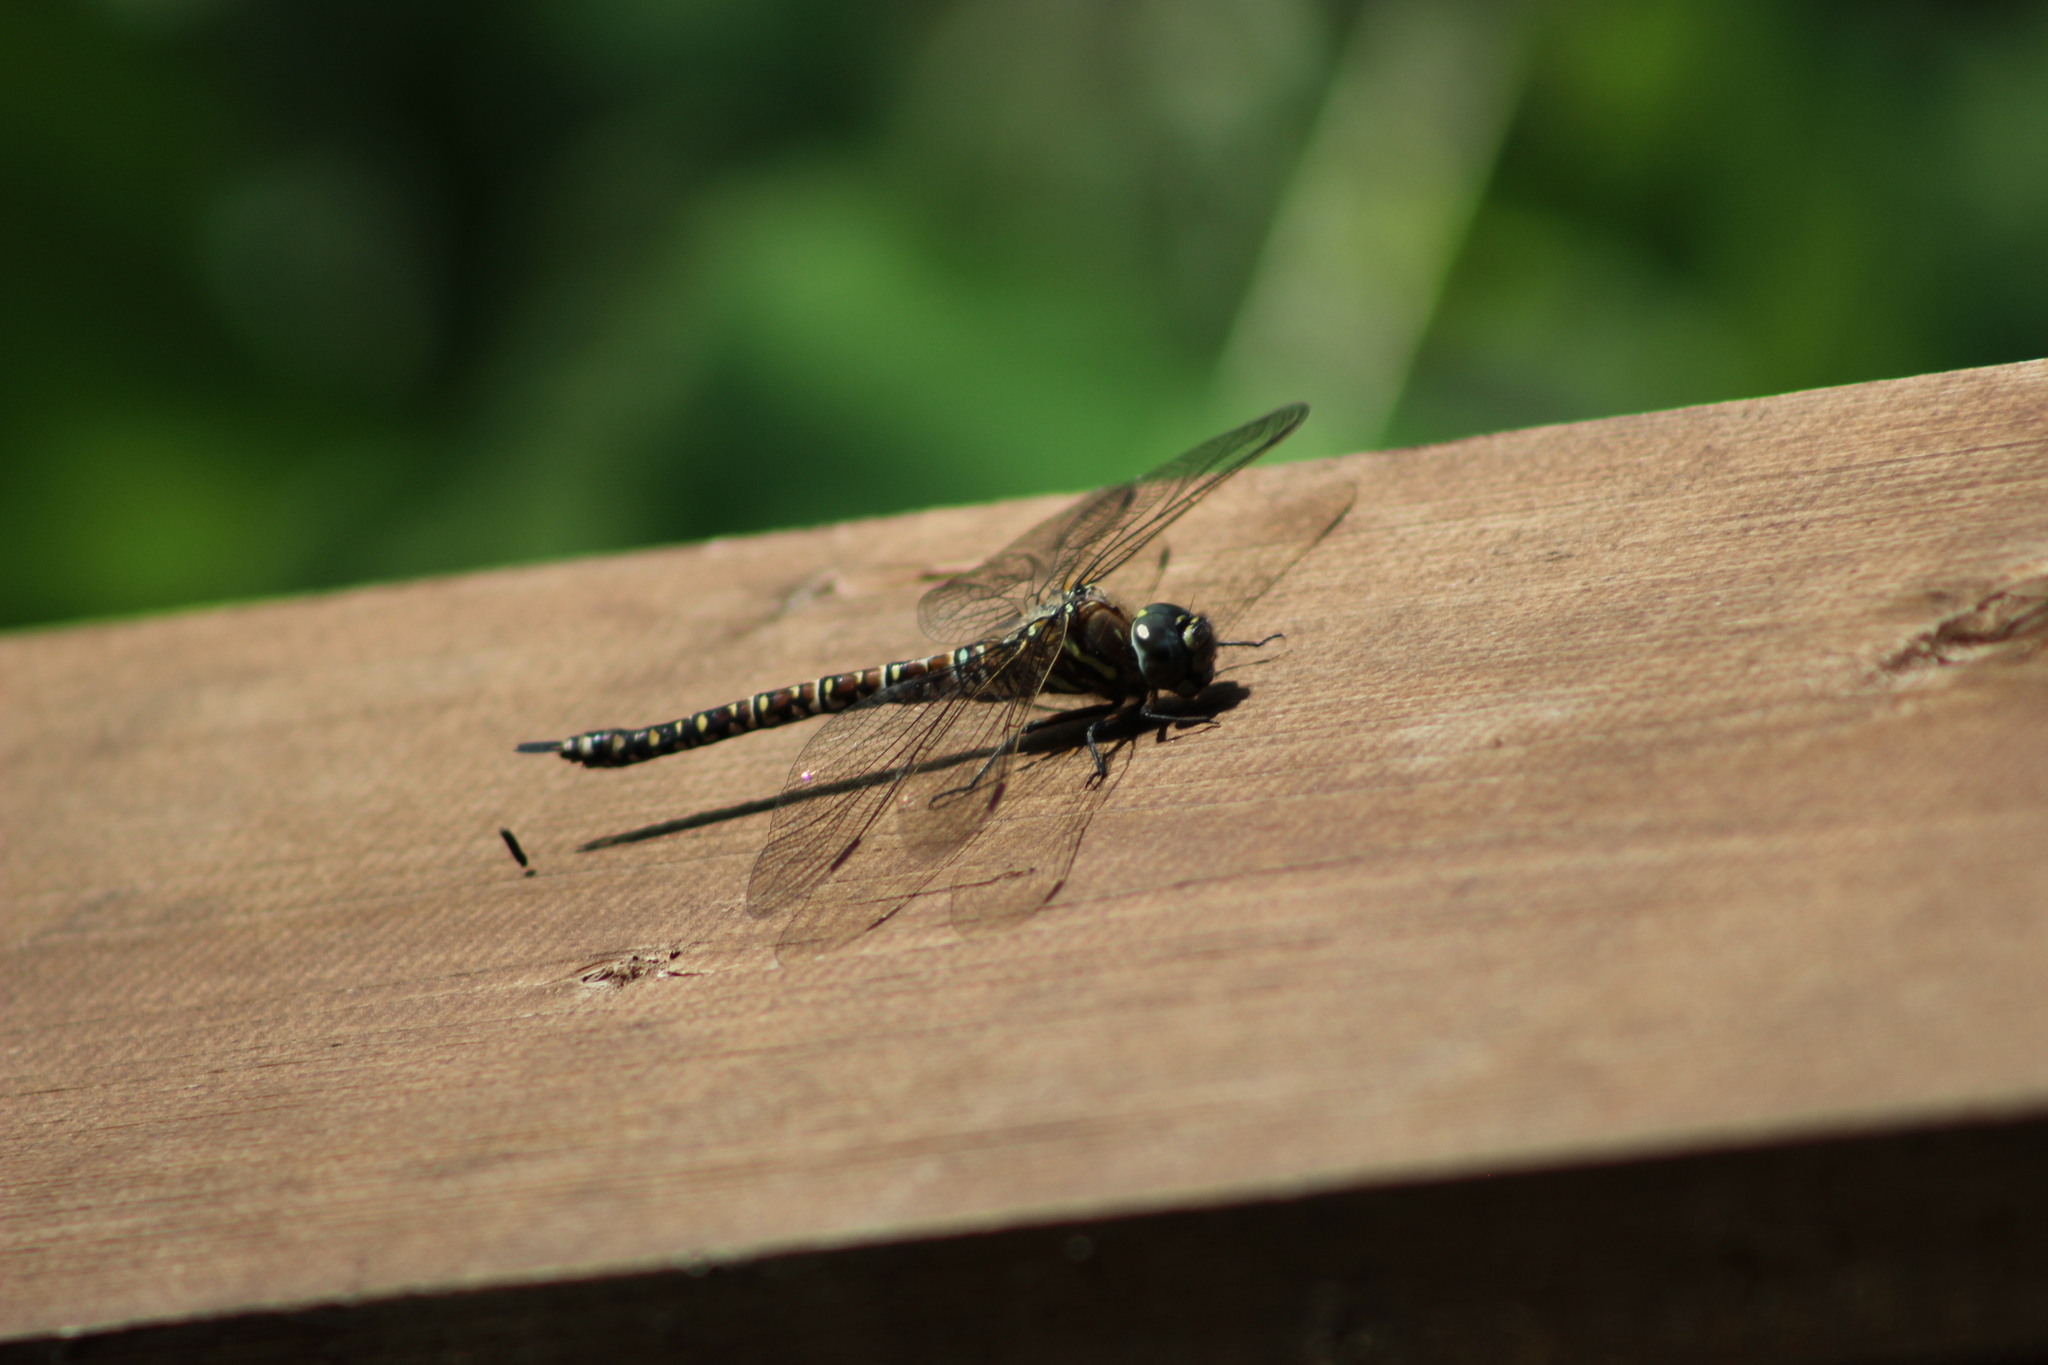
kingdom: Animalia
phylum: Arthropoda
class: Insecta
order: Odonata
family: Aeshnidae
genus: Aeshna
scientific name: Aeshna subarctica
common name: Subarctic darner
